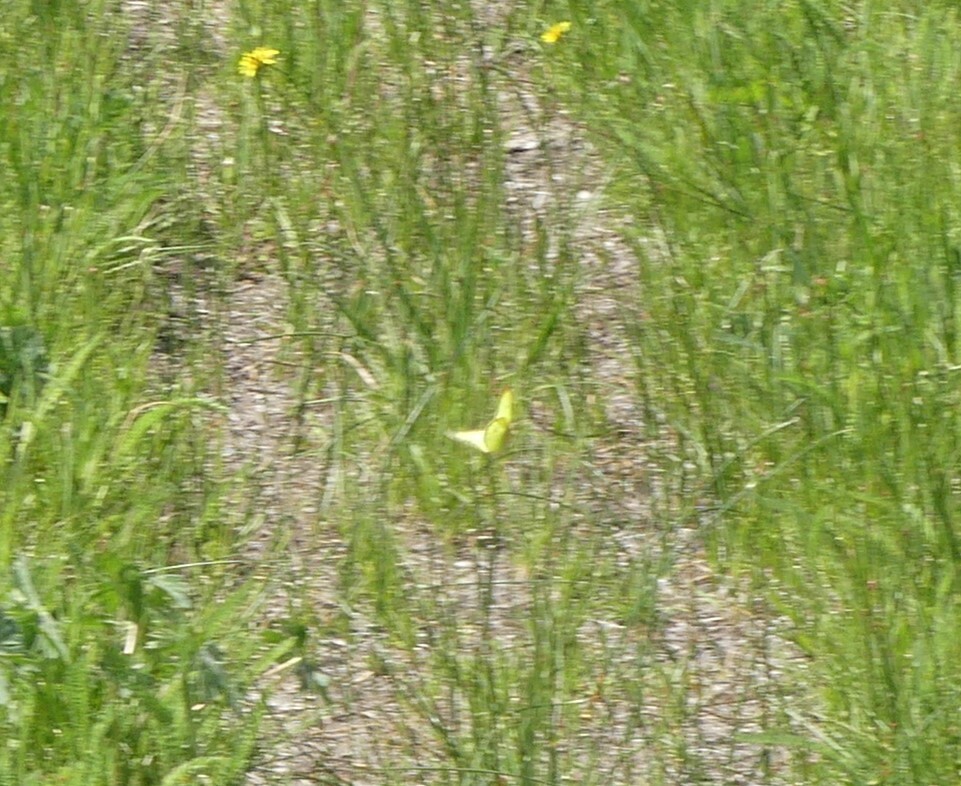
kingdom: Animalia
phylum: Arthropoda
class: Insecta
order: Lepidoptera
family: Pieridae
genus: Colias
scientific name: Colias philodice
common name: Clouded sulphur
